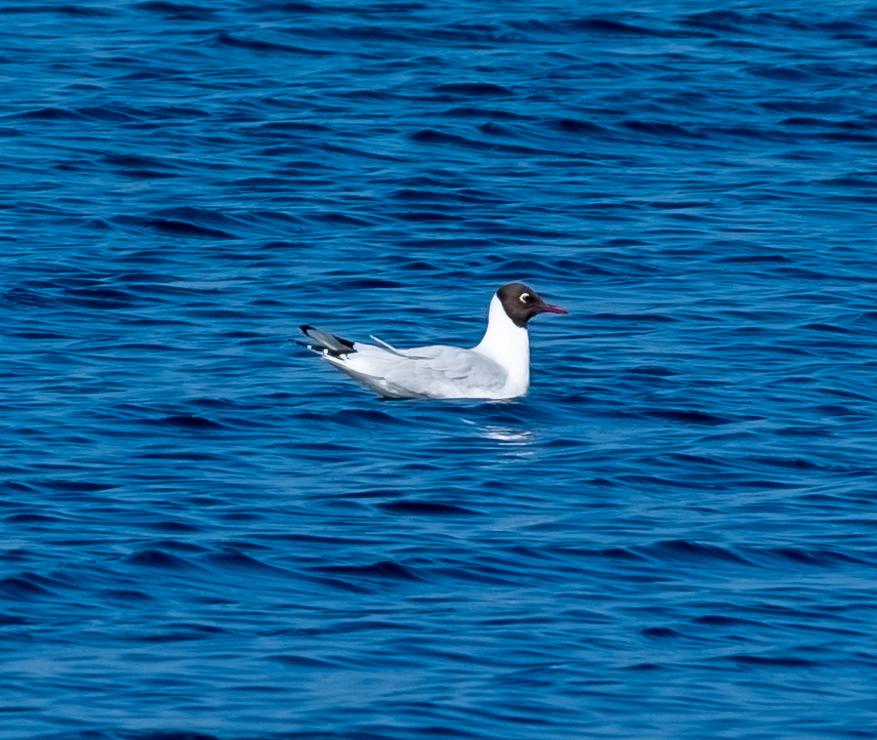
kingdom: Animalia
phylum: Chordata
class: Aves
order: Charadriiformes
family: Laridae
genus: Chroicocephalus
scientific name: Chroicocephalus ridibundus
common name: Black-headed gull
